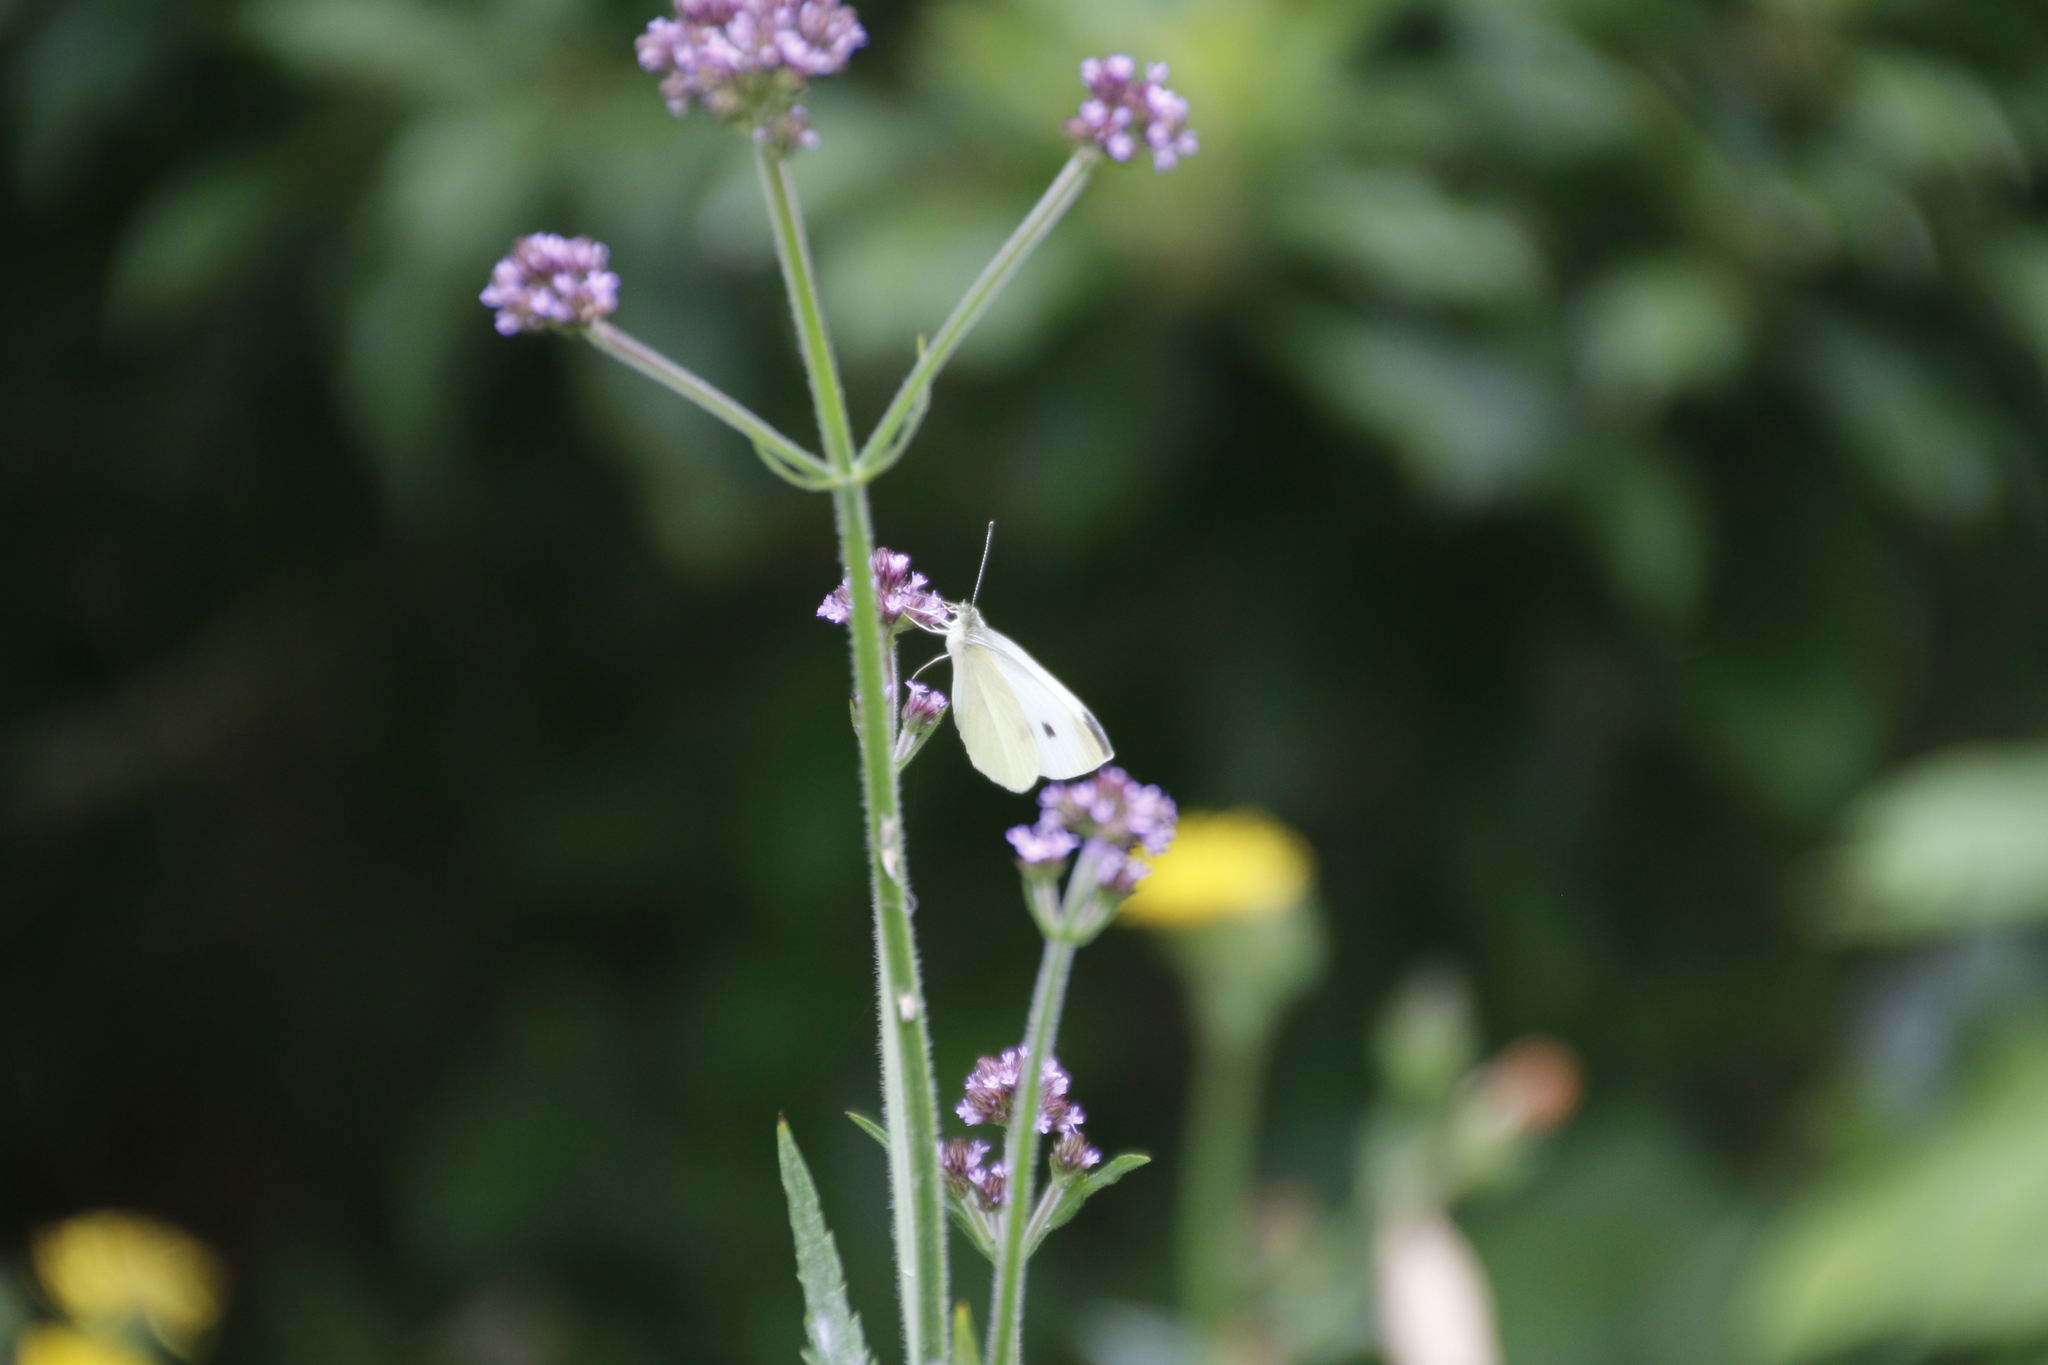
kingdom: Animalia
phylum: Arthropoda
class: Insecta
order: Lepidoptera
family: Pieridae
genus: Pieris
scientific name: Pieris rapae
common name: Small white
